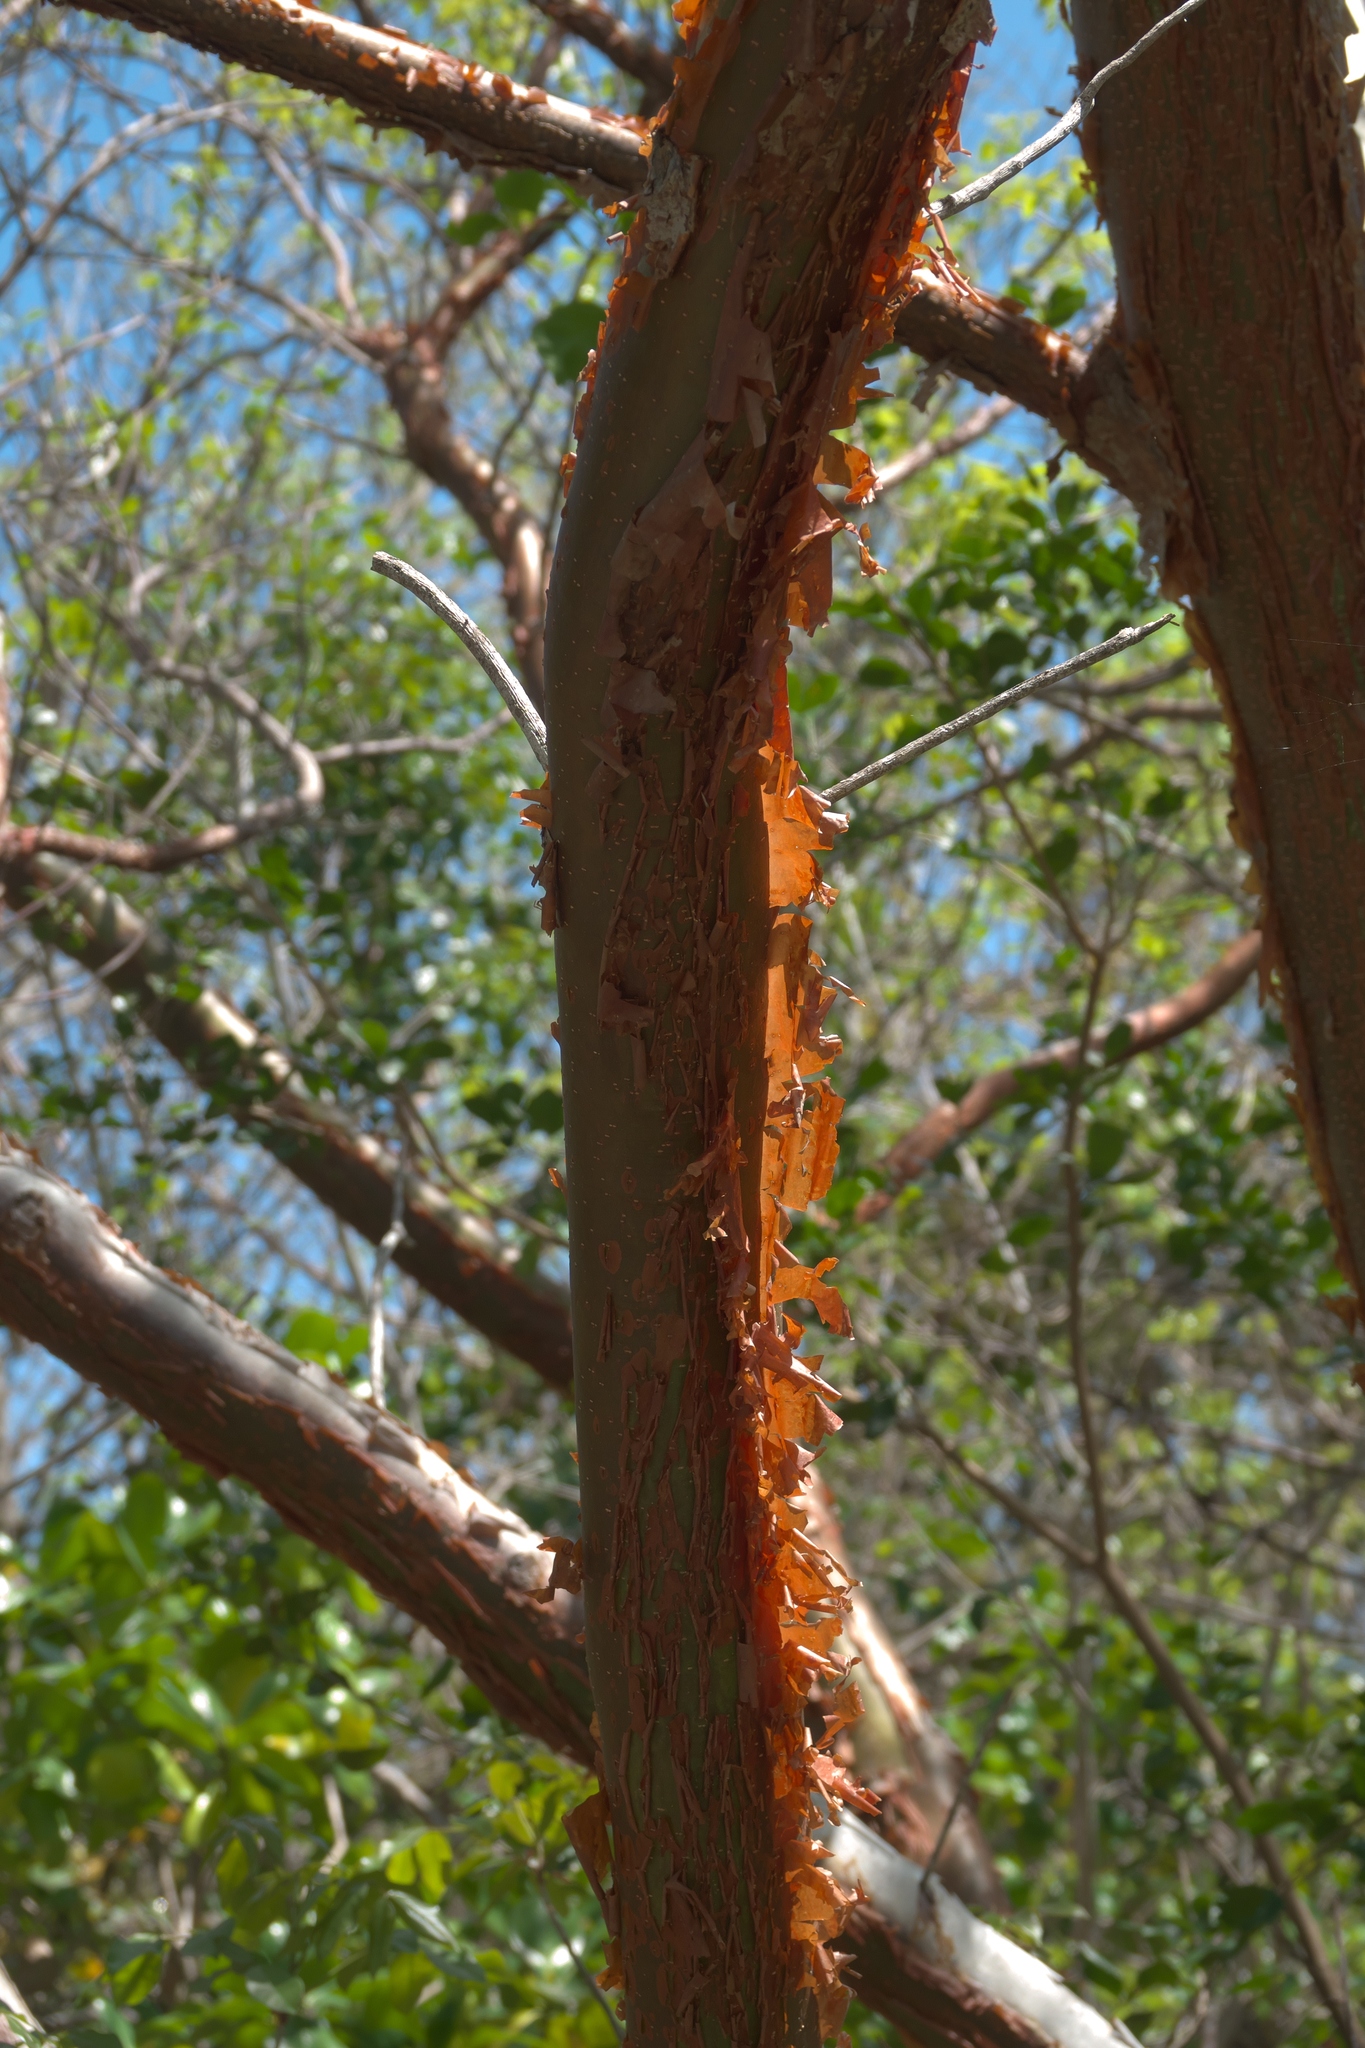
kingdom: Plantae
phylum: Tracheophyta
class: Magnoliopsida
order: Sapindales
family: Burseraceae
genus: Bursera
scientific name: Bursera simaruba
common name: Turpentine tree
